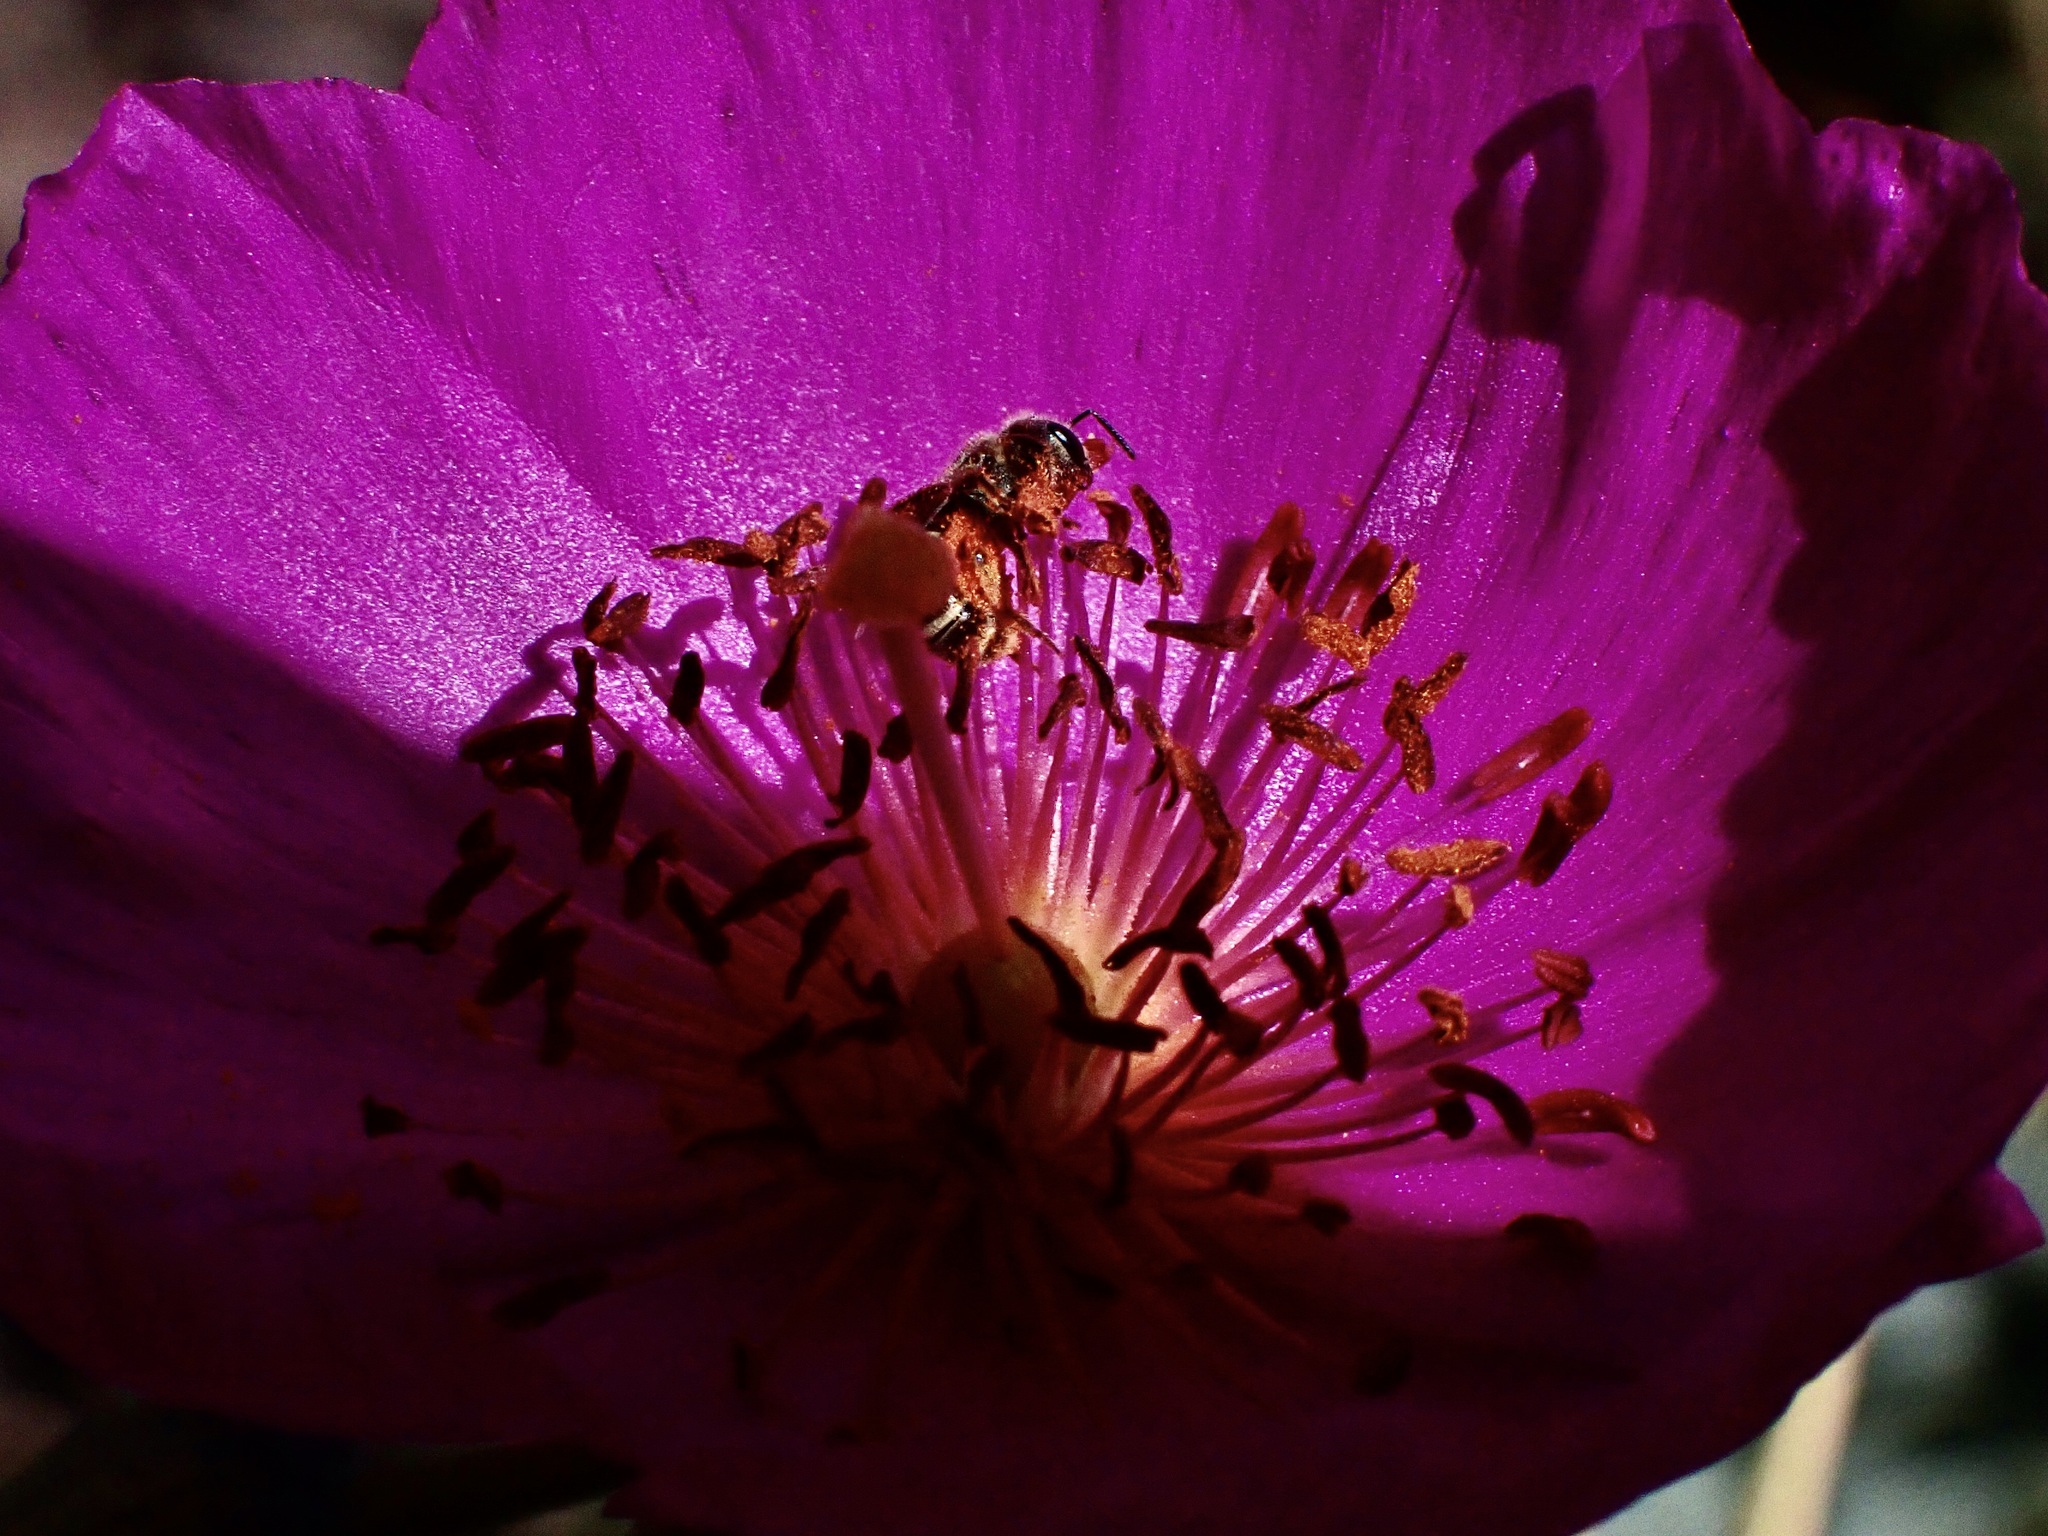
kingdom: Animalia
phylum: Arthropoda
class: Insecta
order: Hymenoptera
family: Halictidae
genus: Halictus
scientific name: Halictus tripartitus
